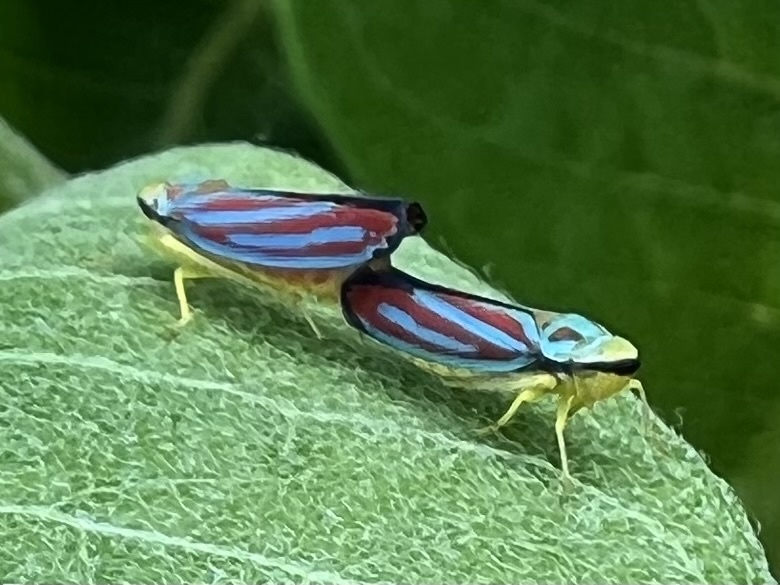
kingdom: Animalia
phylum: Arthropoda
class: Insecta
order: Hemiptera
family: Cicadellidae
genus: Graphocephala
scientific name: Graphocephala coccinea
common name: Candy-striped leafhopper
